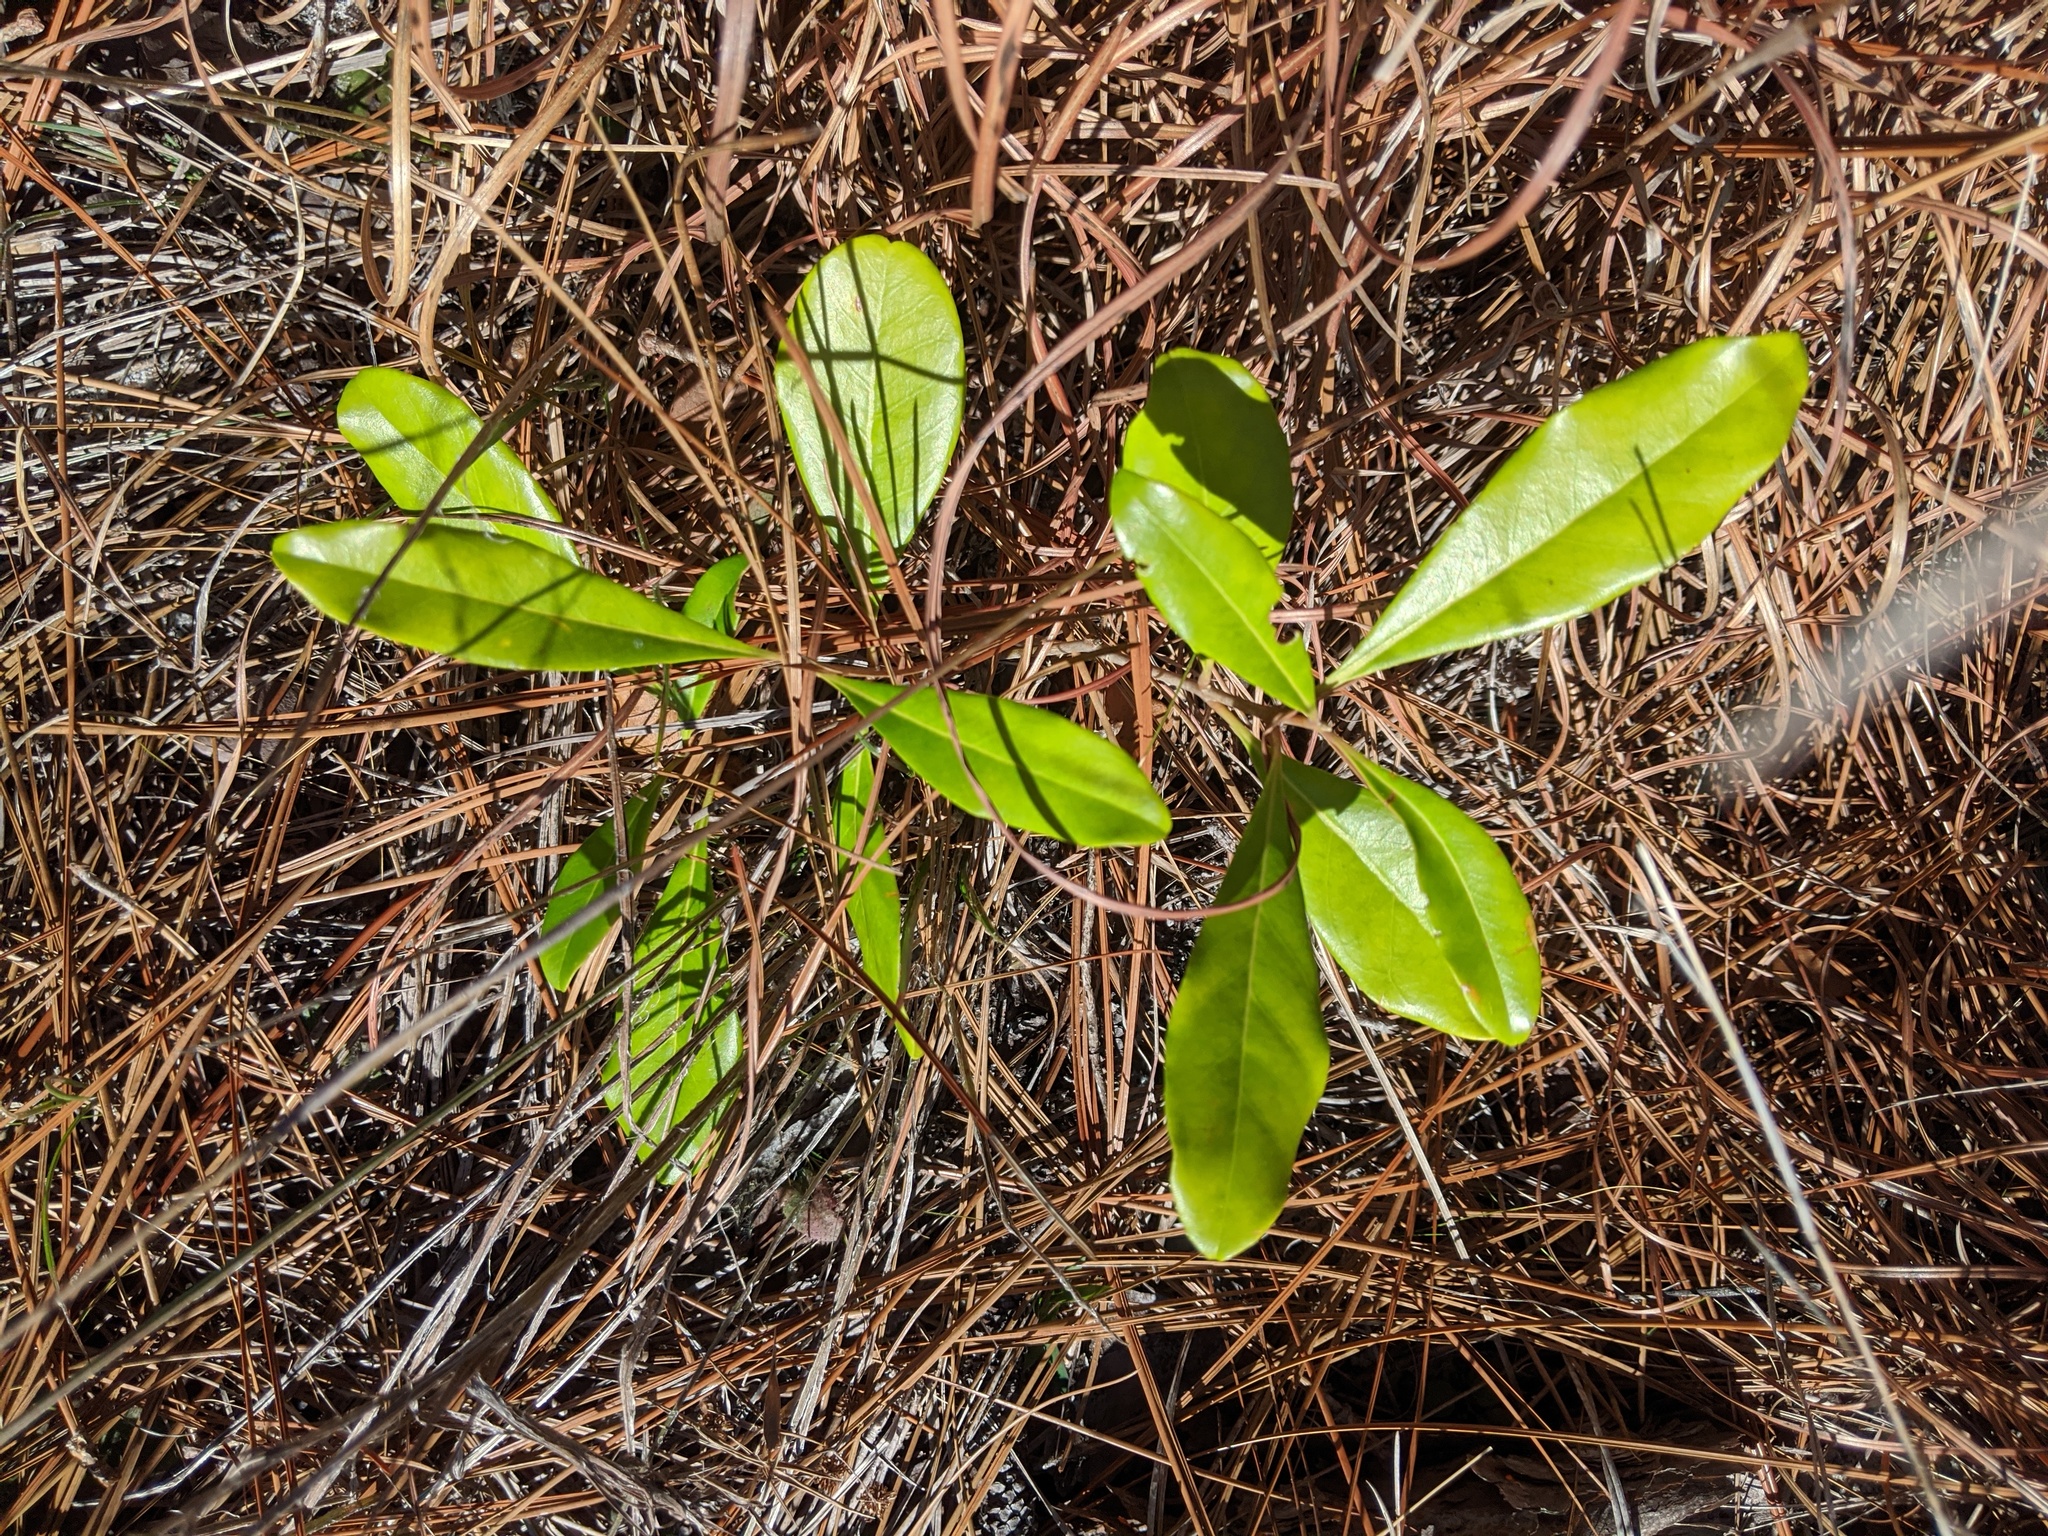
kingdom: Plantae
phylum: Tracheophyta
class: Magnoliopsida
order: Lamiales
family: Oleaceae
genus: Cartrema
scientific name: Cartrema americana
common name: Devilwood
